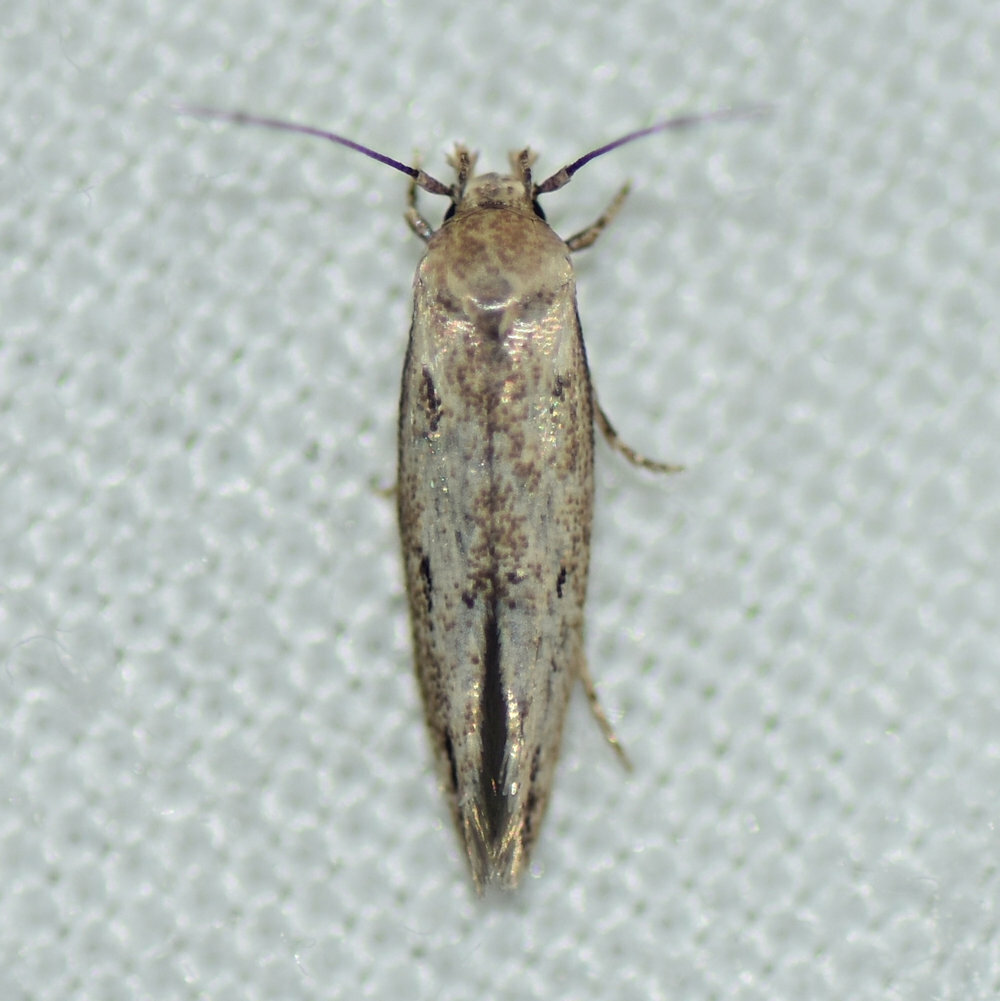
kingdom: Animalia
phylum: Arthropoda
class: Insecta
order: Lepidoptera
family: Momphidae
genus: Mompha
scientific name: Mompha brevivittella
